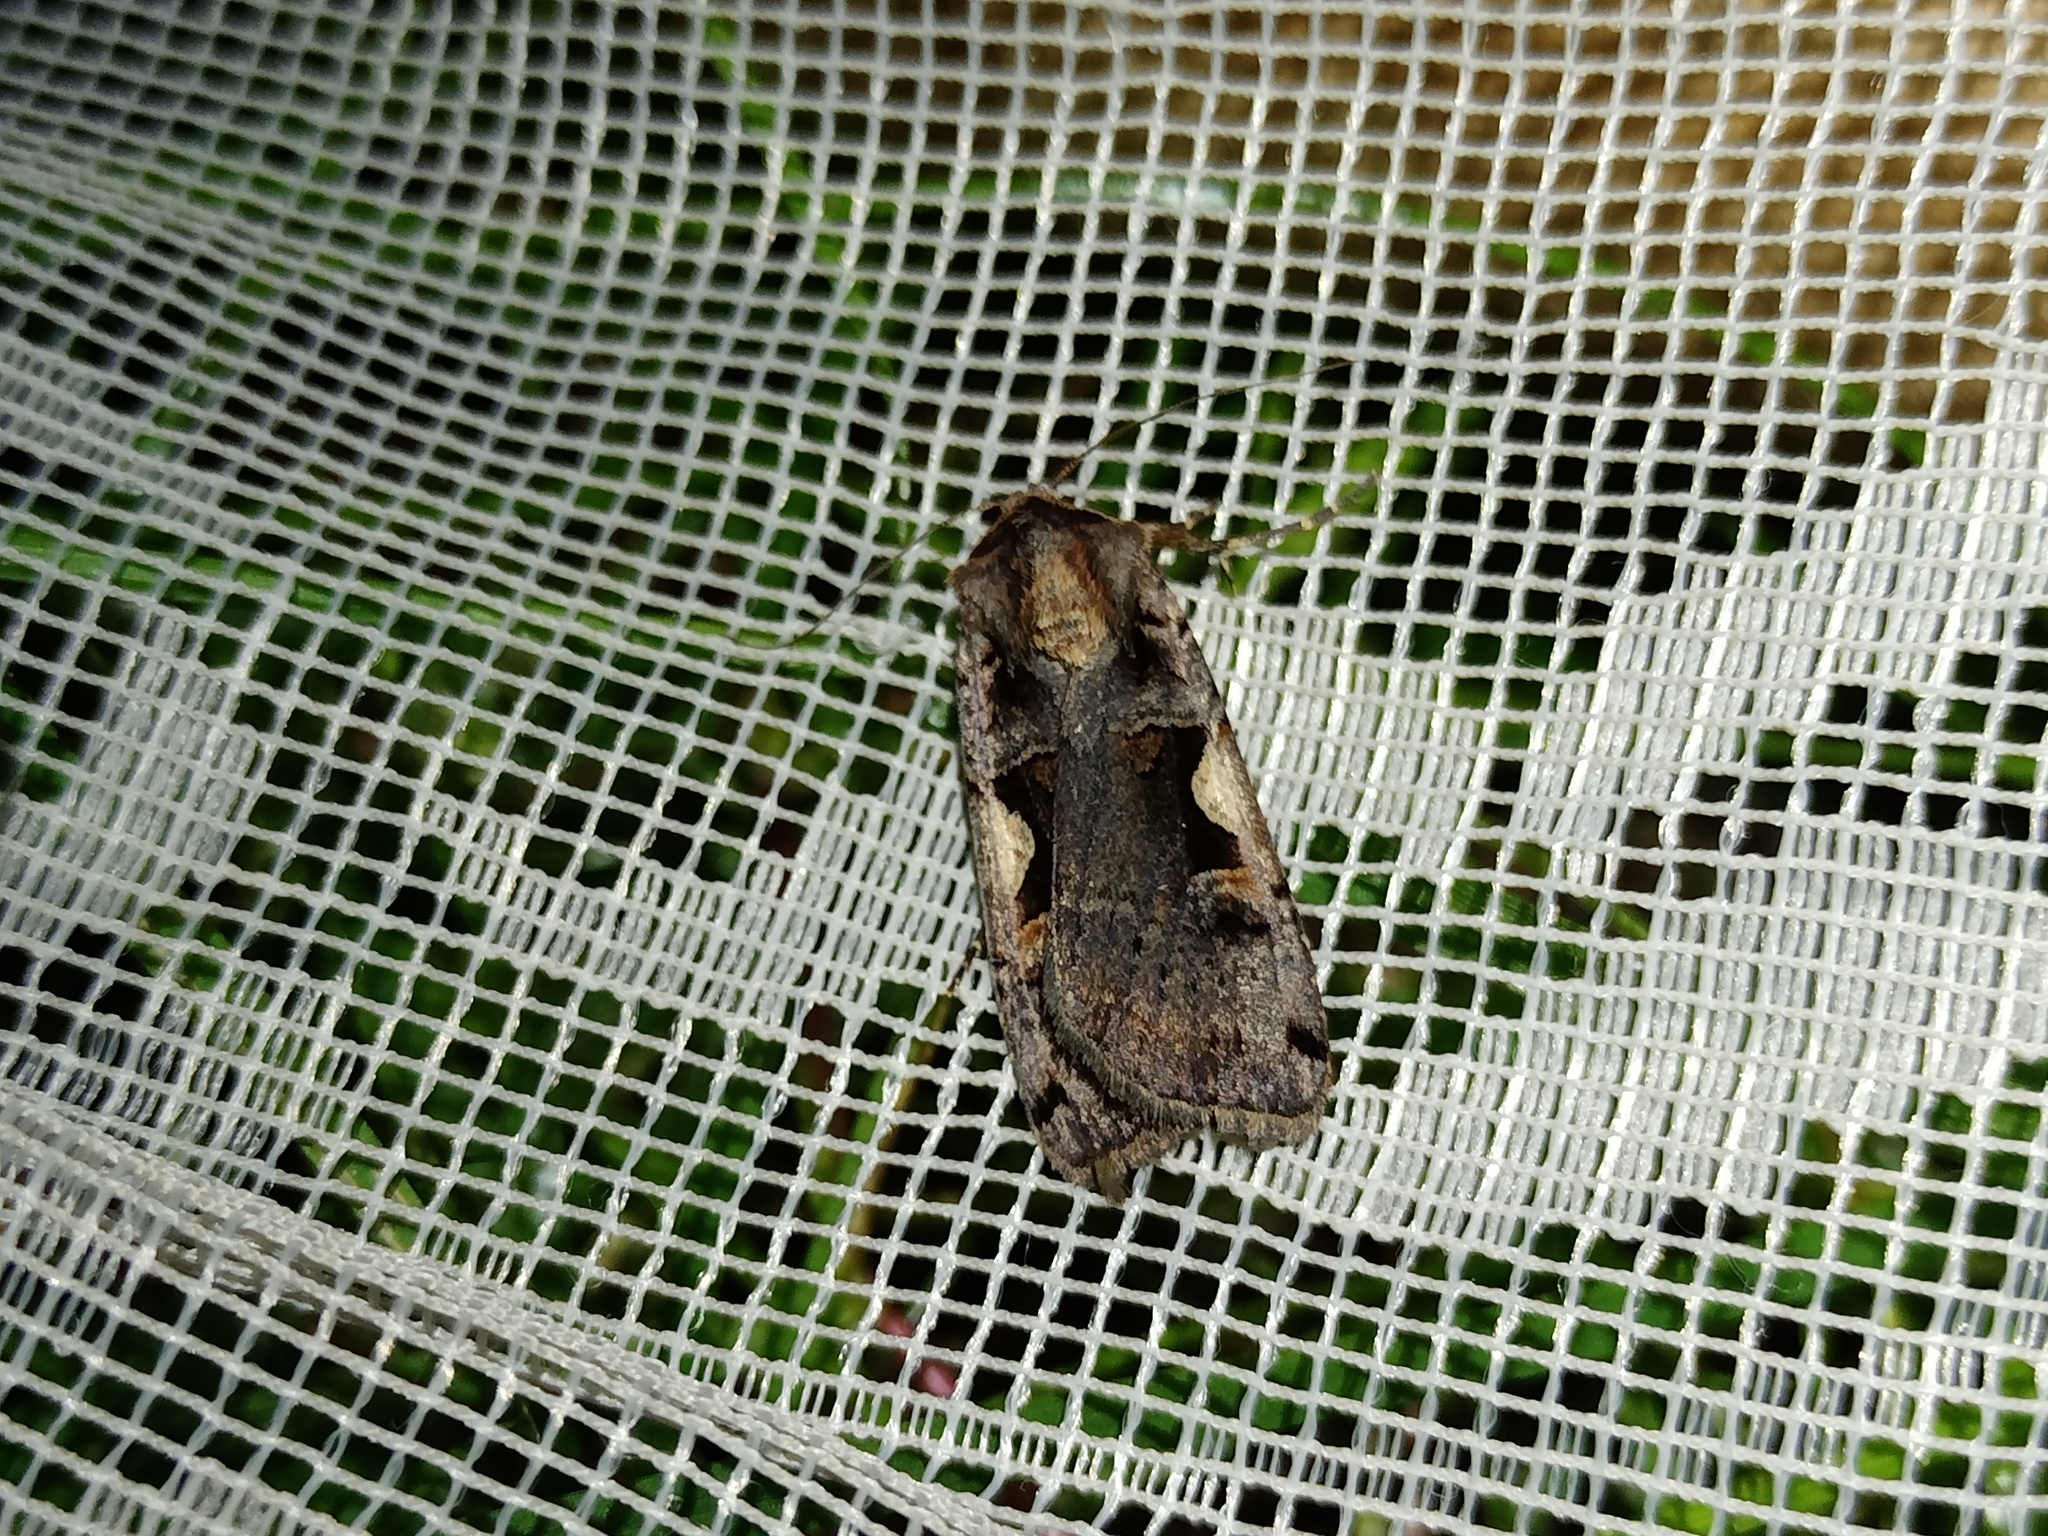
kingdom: Animalia
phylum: Arthropoda
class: Insecta
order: Lepidoptera
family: Noctuidae
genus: Xestia
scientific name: Xestia c-nigrum
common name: Setaceous hebrew character
